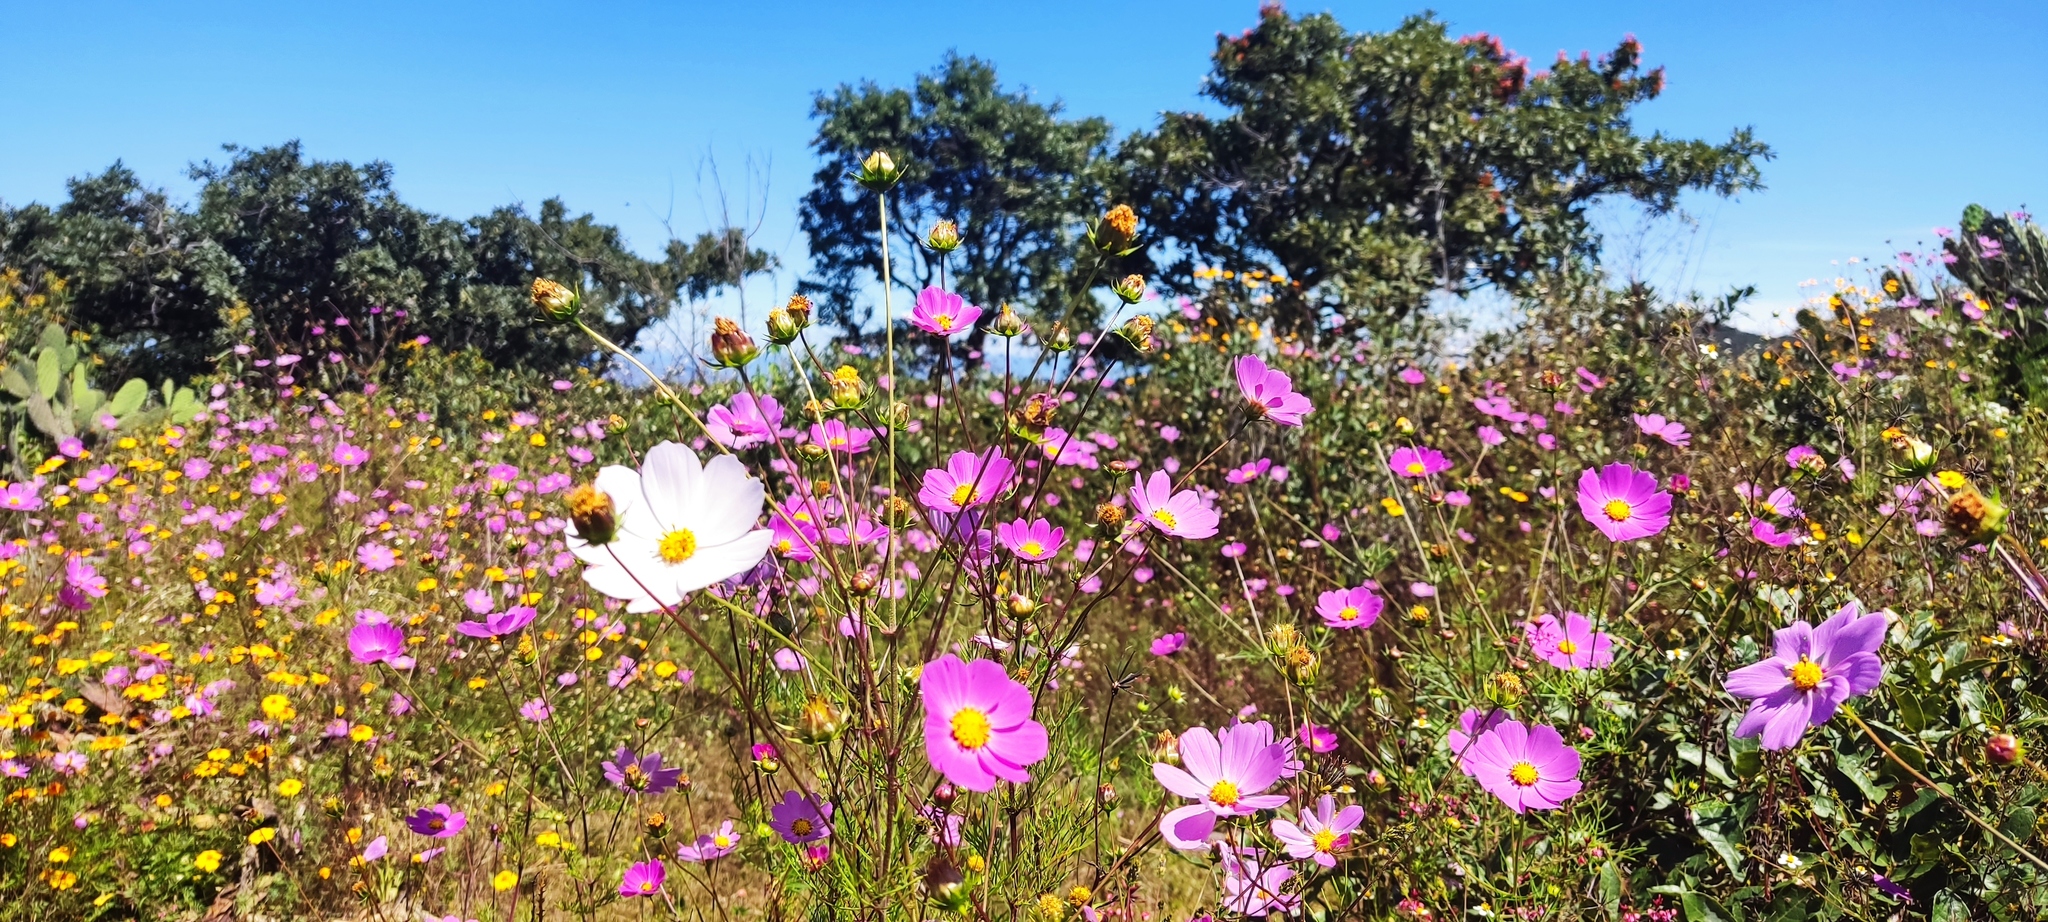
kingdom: Plantae
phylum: Tracheophyta
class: Magnoliopsida
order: Asterales
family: Asteraceae
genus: Cosmos
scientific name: Cosmos bipinnatus
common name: Garden cosmos
